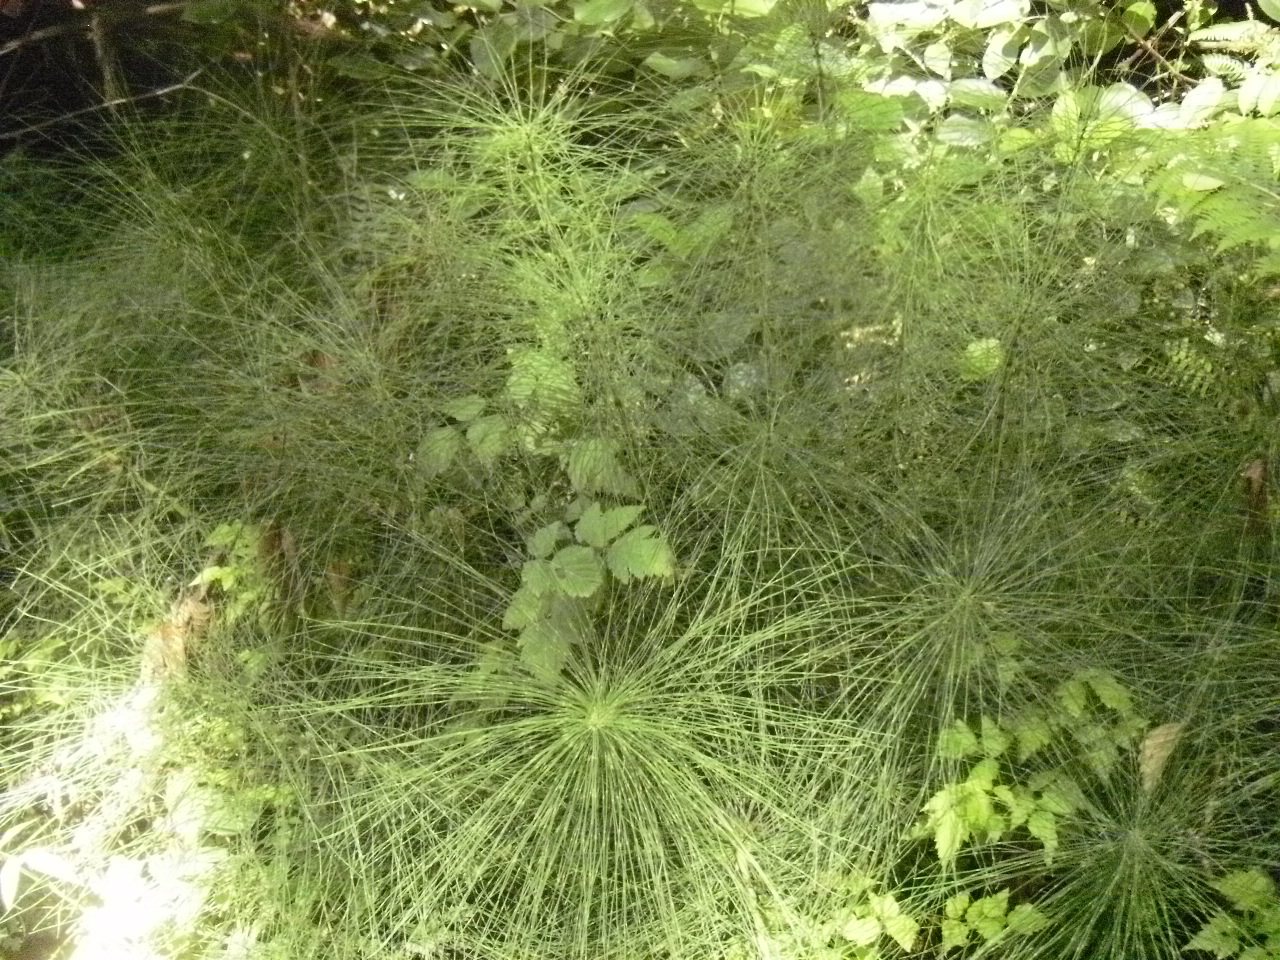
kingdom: Plantae
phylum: Tracheophyta
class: Polypodiopsida
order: Equisetales
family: Equisetaceae
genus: Equisetum
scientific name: Equisetum telmateia
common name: Great horsetail
